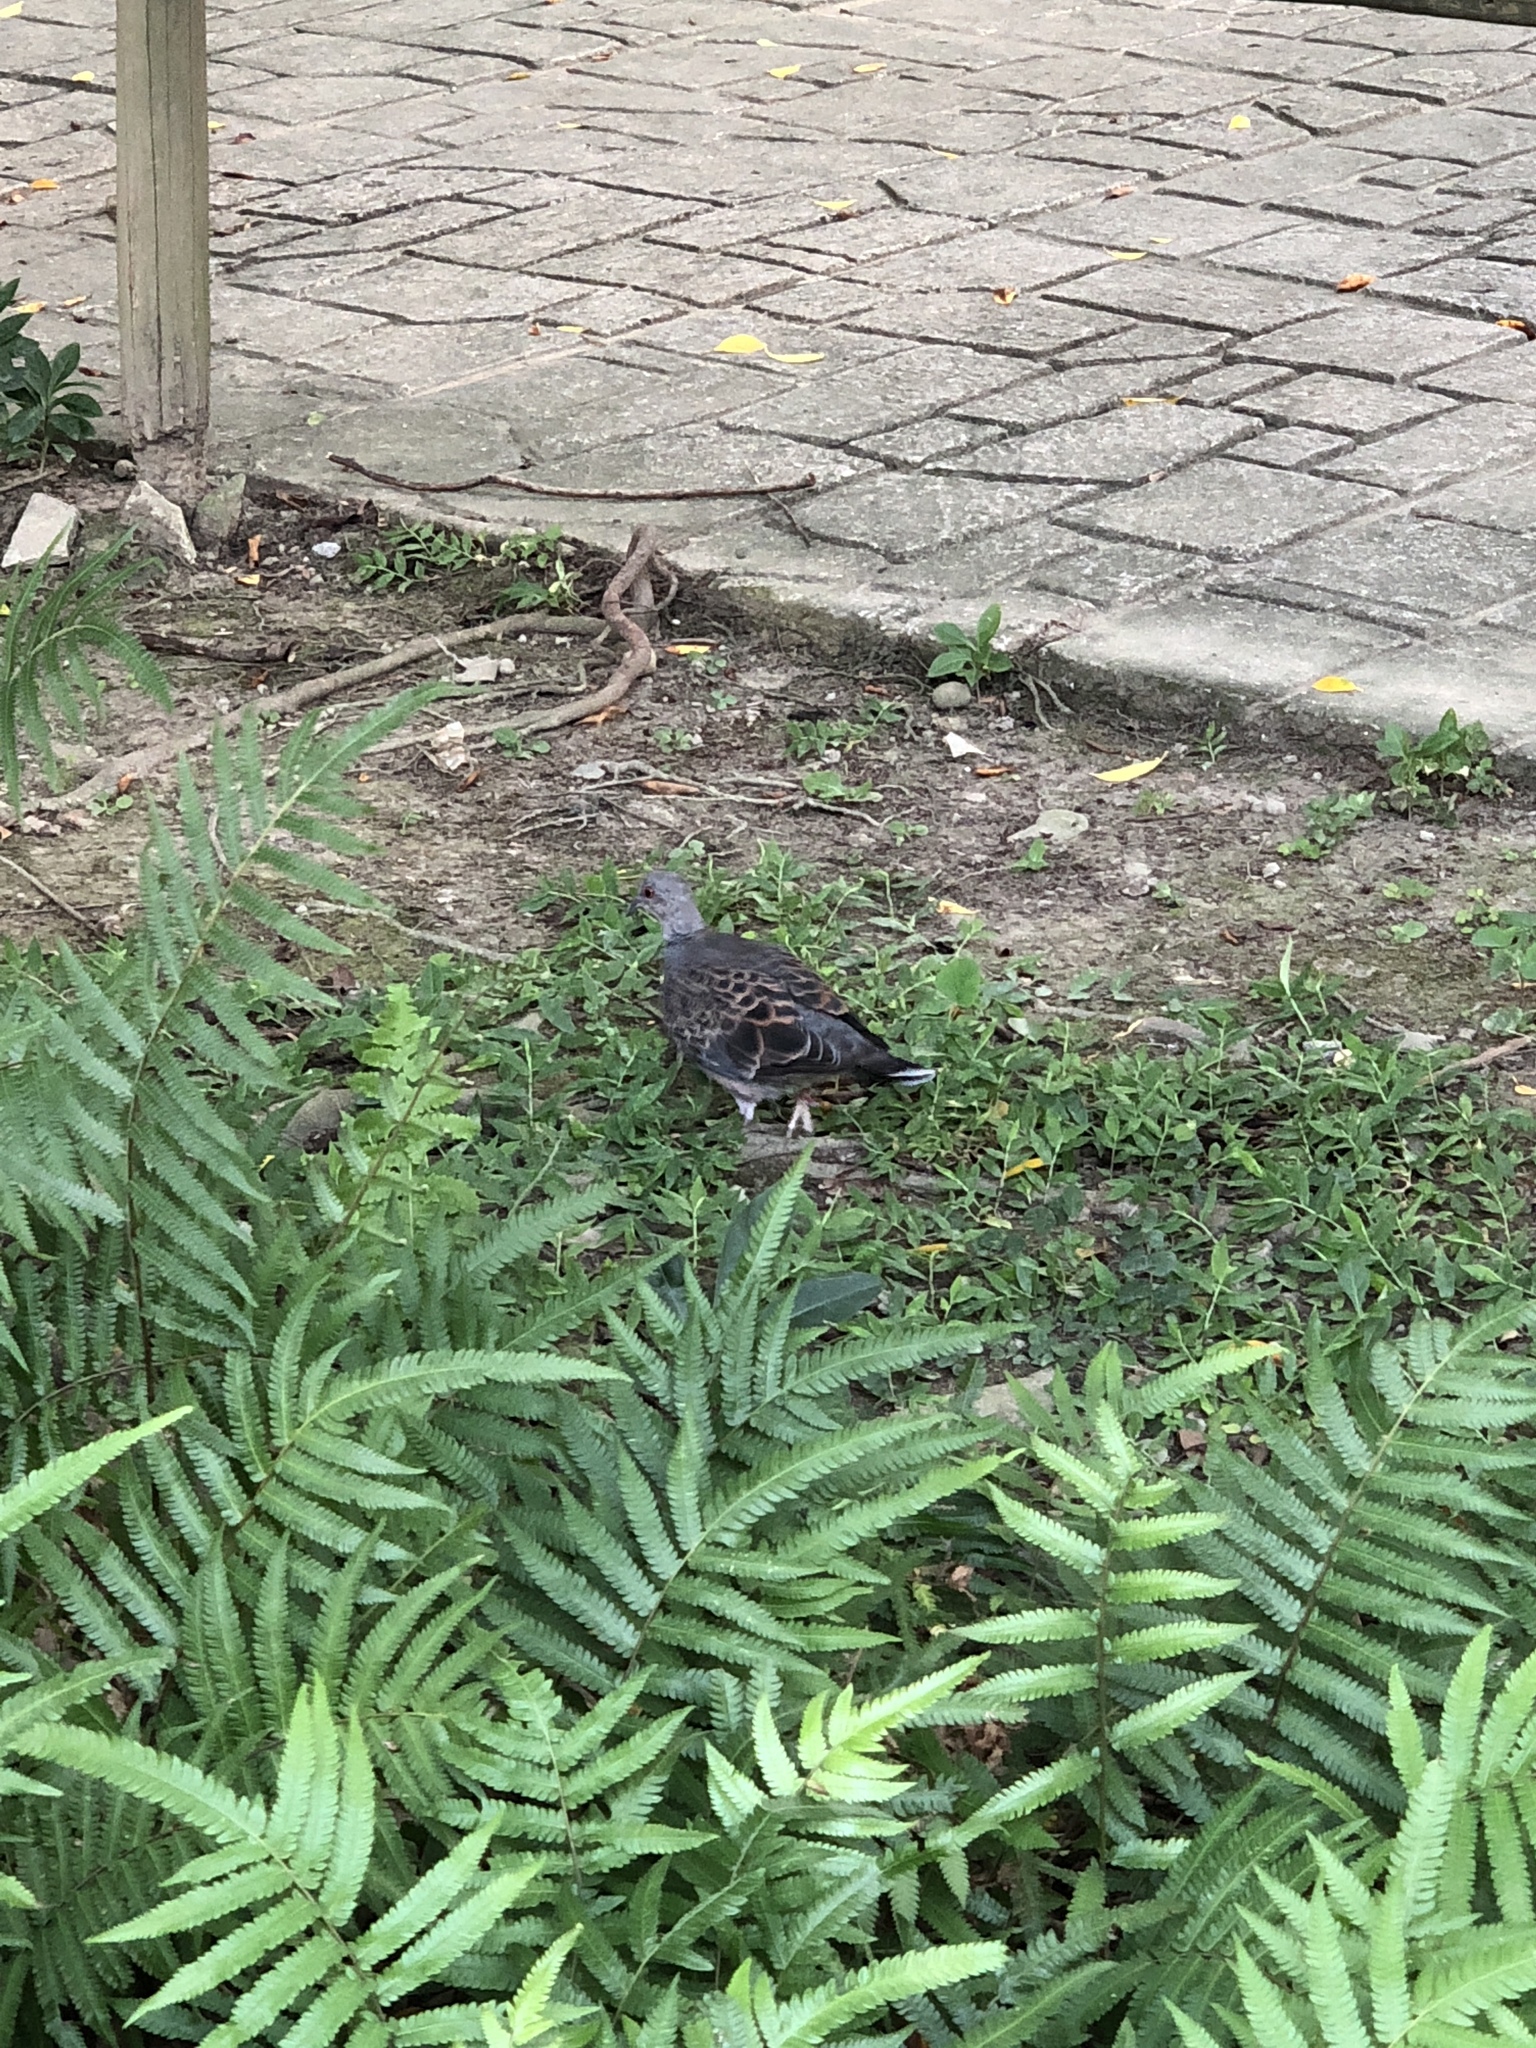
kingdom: Animalia
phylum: Chordata
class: Aves
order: Columbiformes
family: Columbidae
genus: Streptopelia
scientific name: Streptopelia orientalis
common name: Oriental turtle dove
